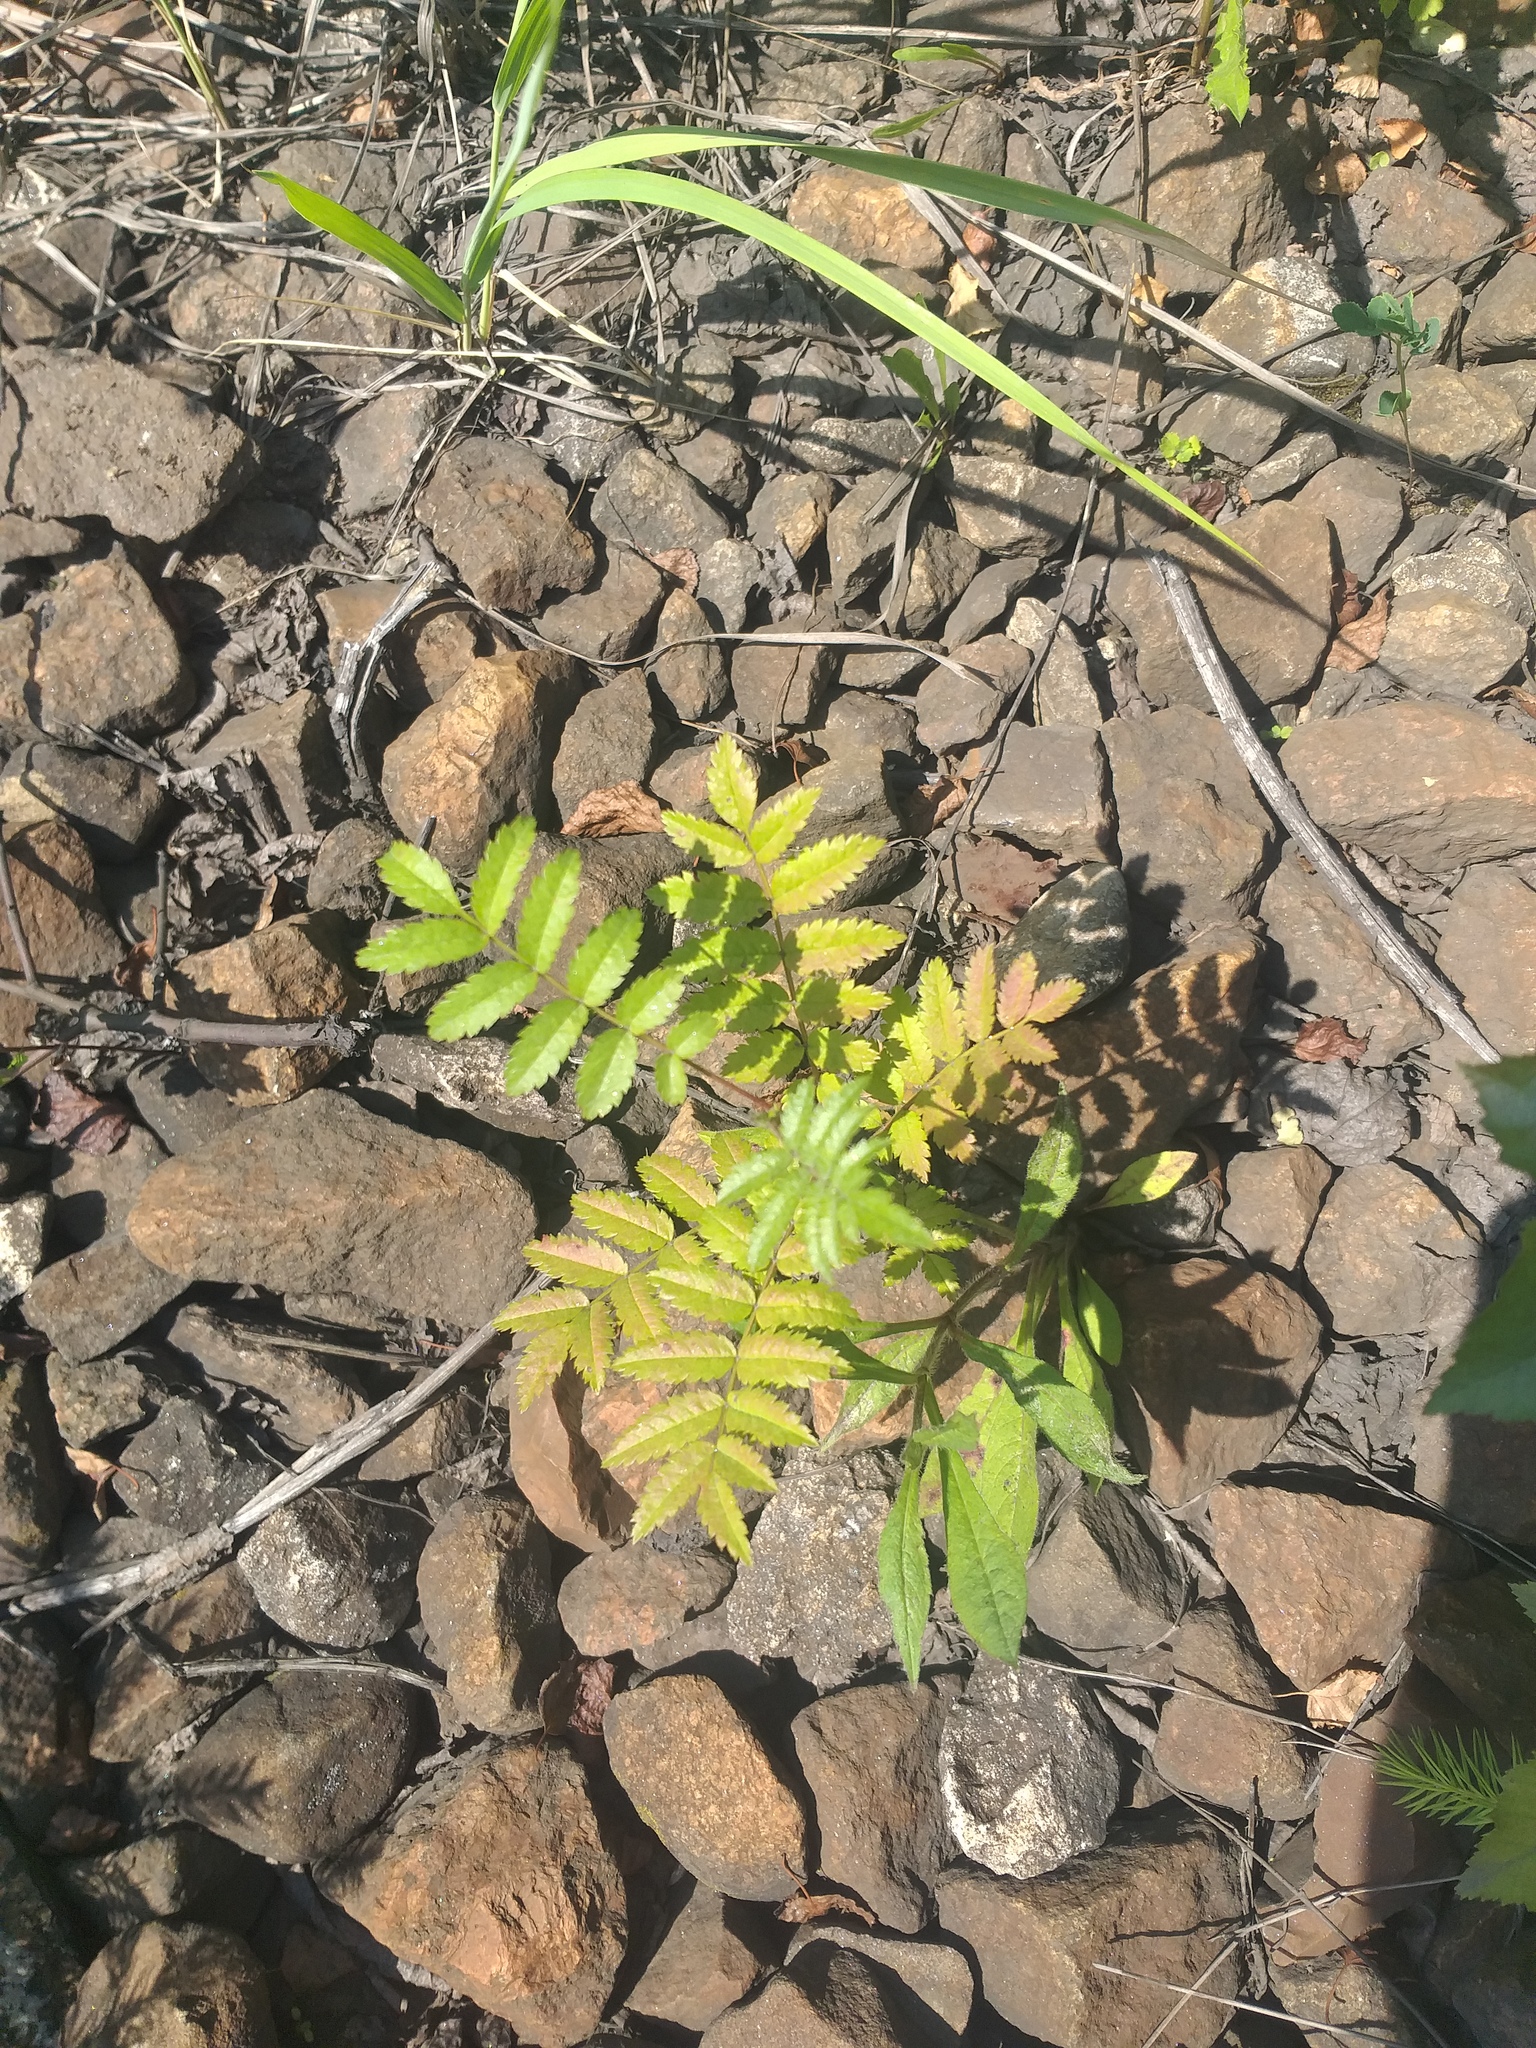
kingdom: Plantae
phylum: Tracheophyta
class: Magnoliopsida
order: Rosales
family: Rosaceae
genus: Sorbus
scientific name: Sorbus aucuparia
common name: Rowan
